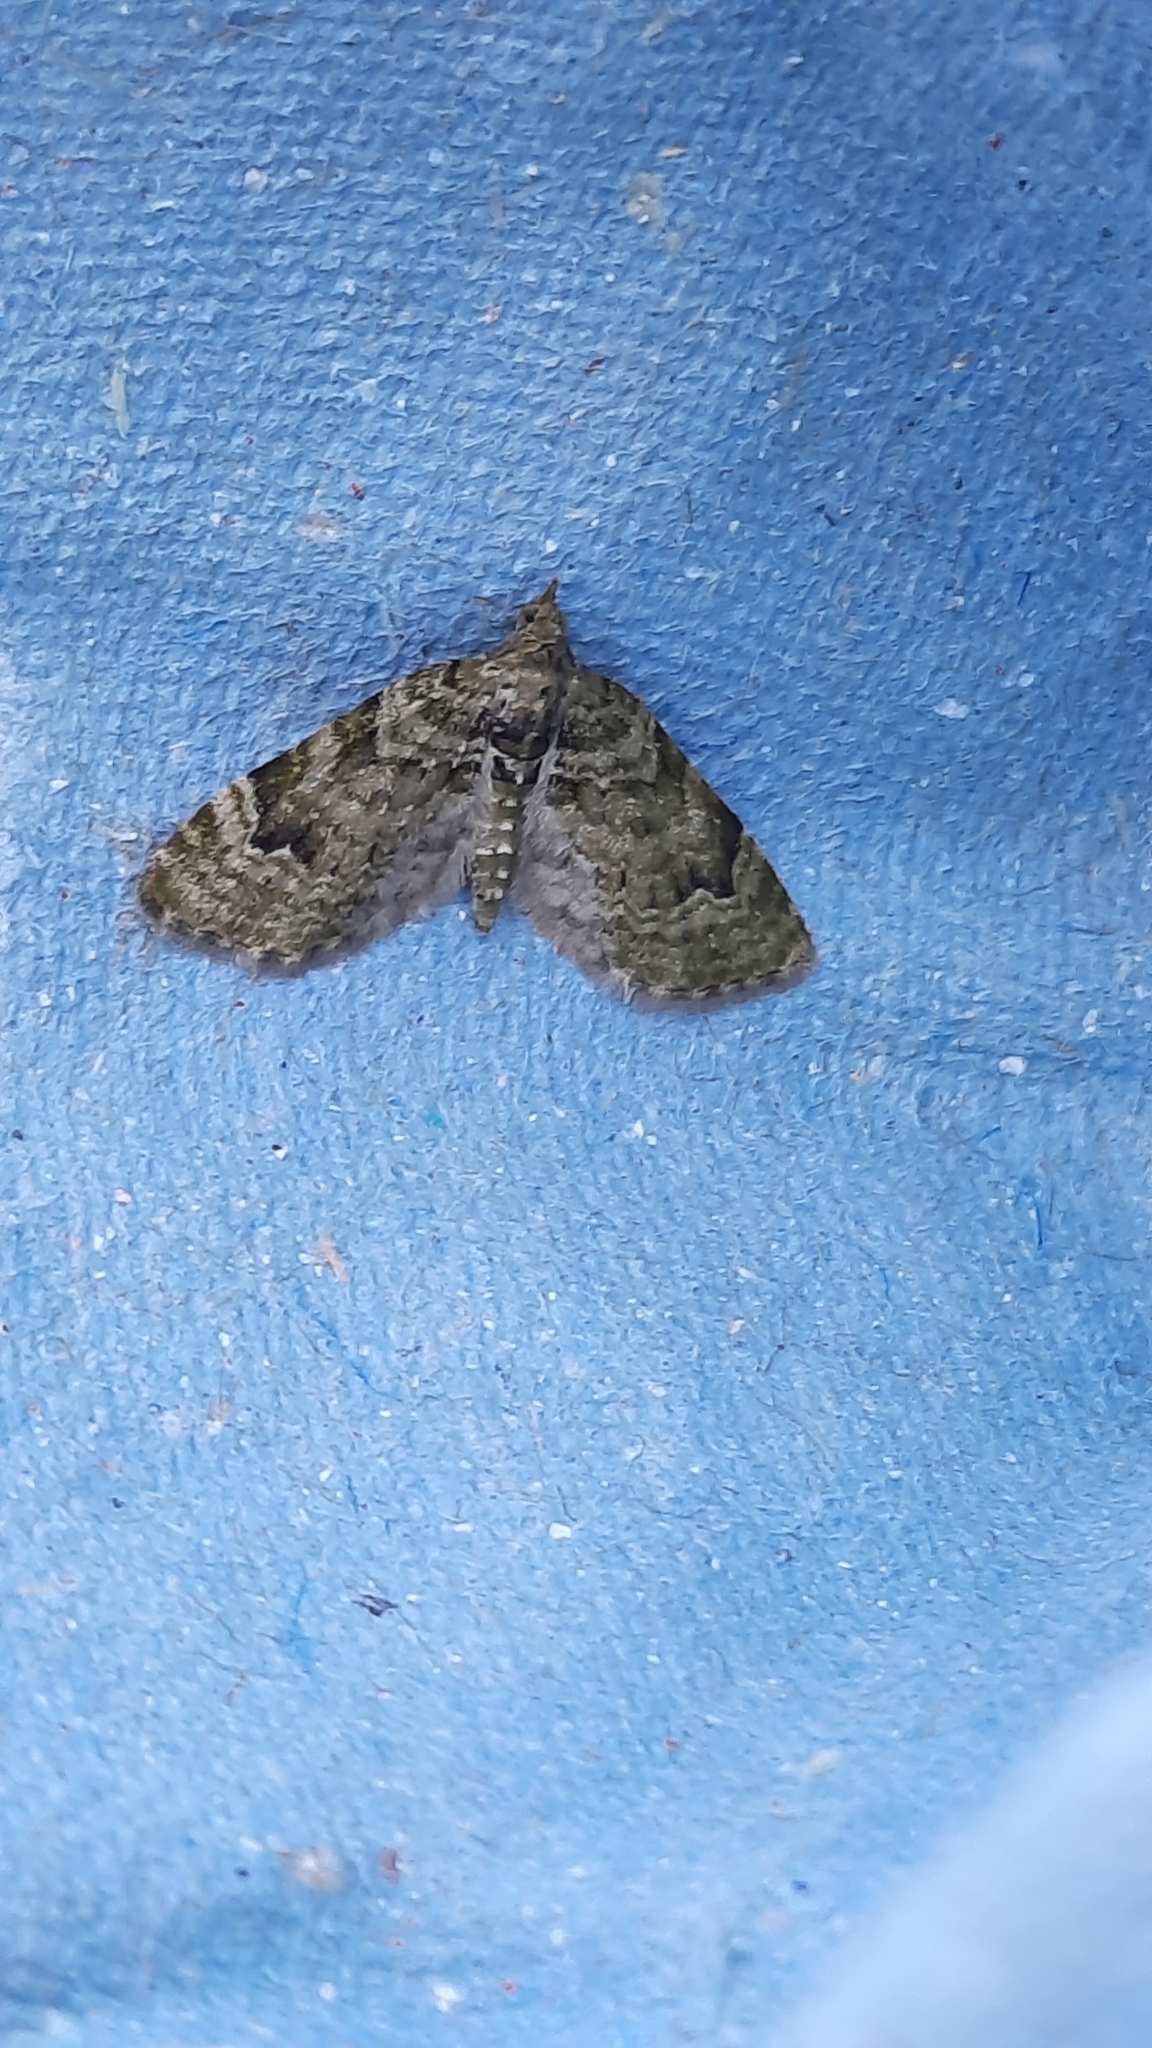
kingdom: Animalia
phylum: Arthropoda
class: Insecta
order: Lepidoptera
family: Geometridae
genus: Chloroclystis
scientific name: Chloroclystis v-ata
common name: V-pug
